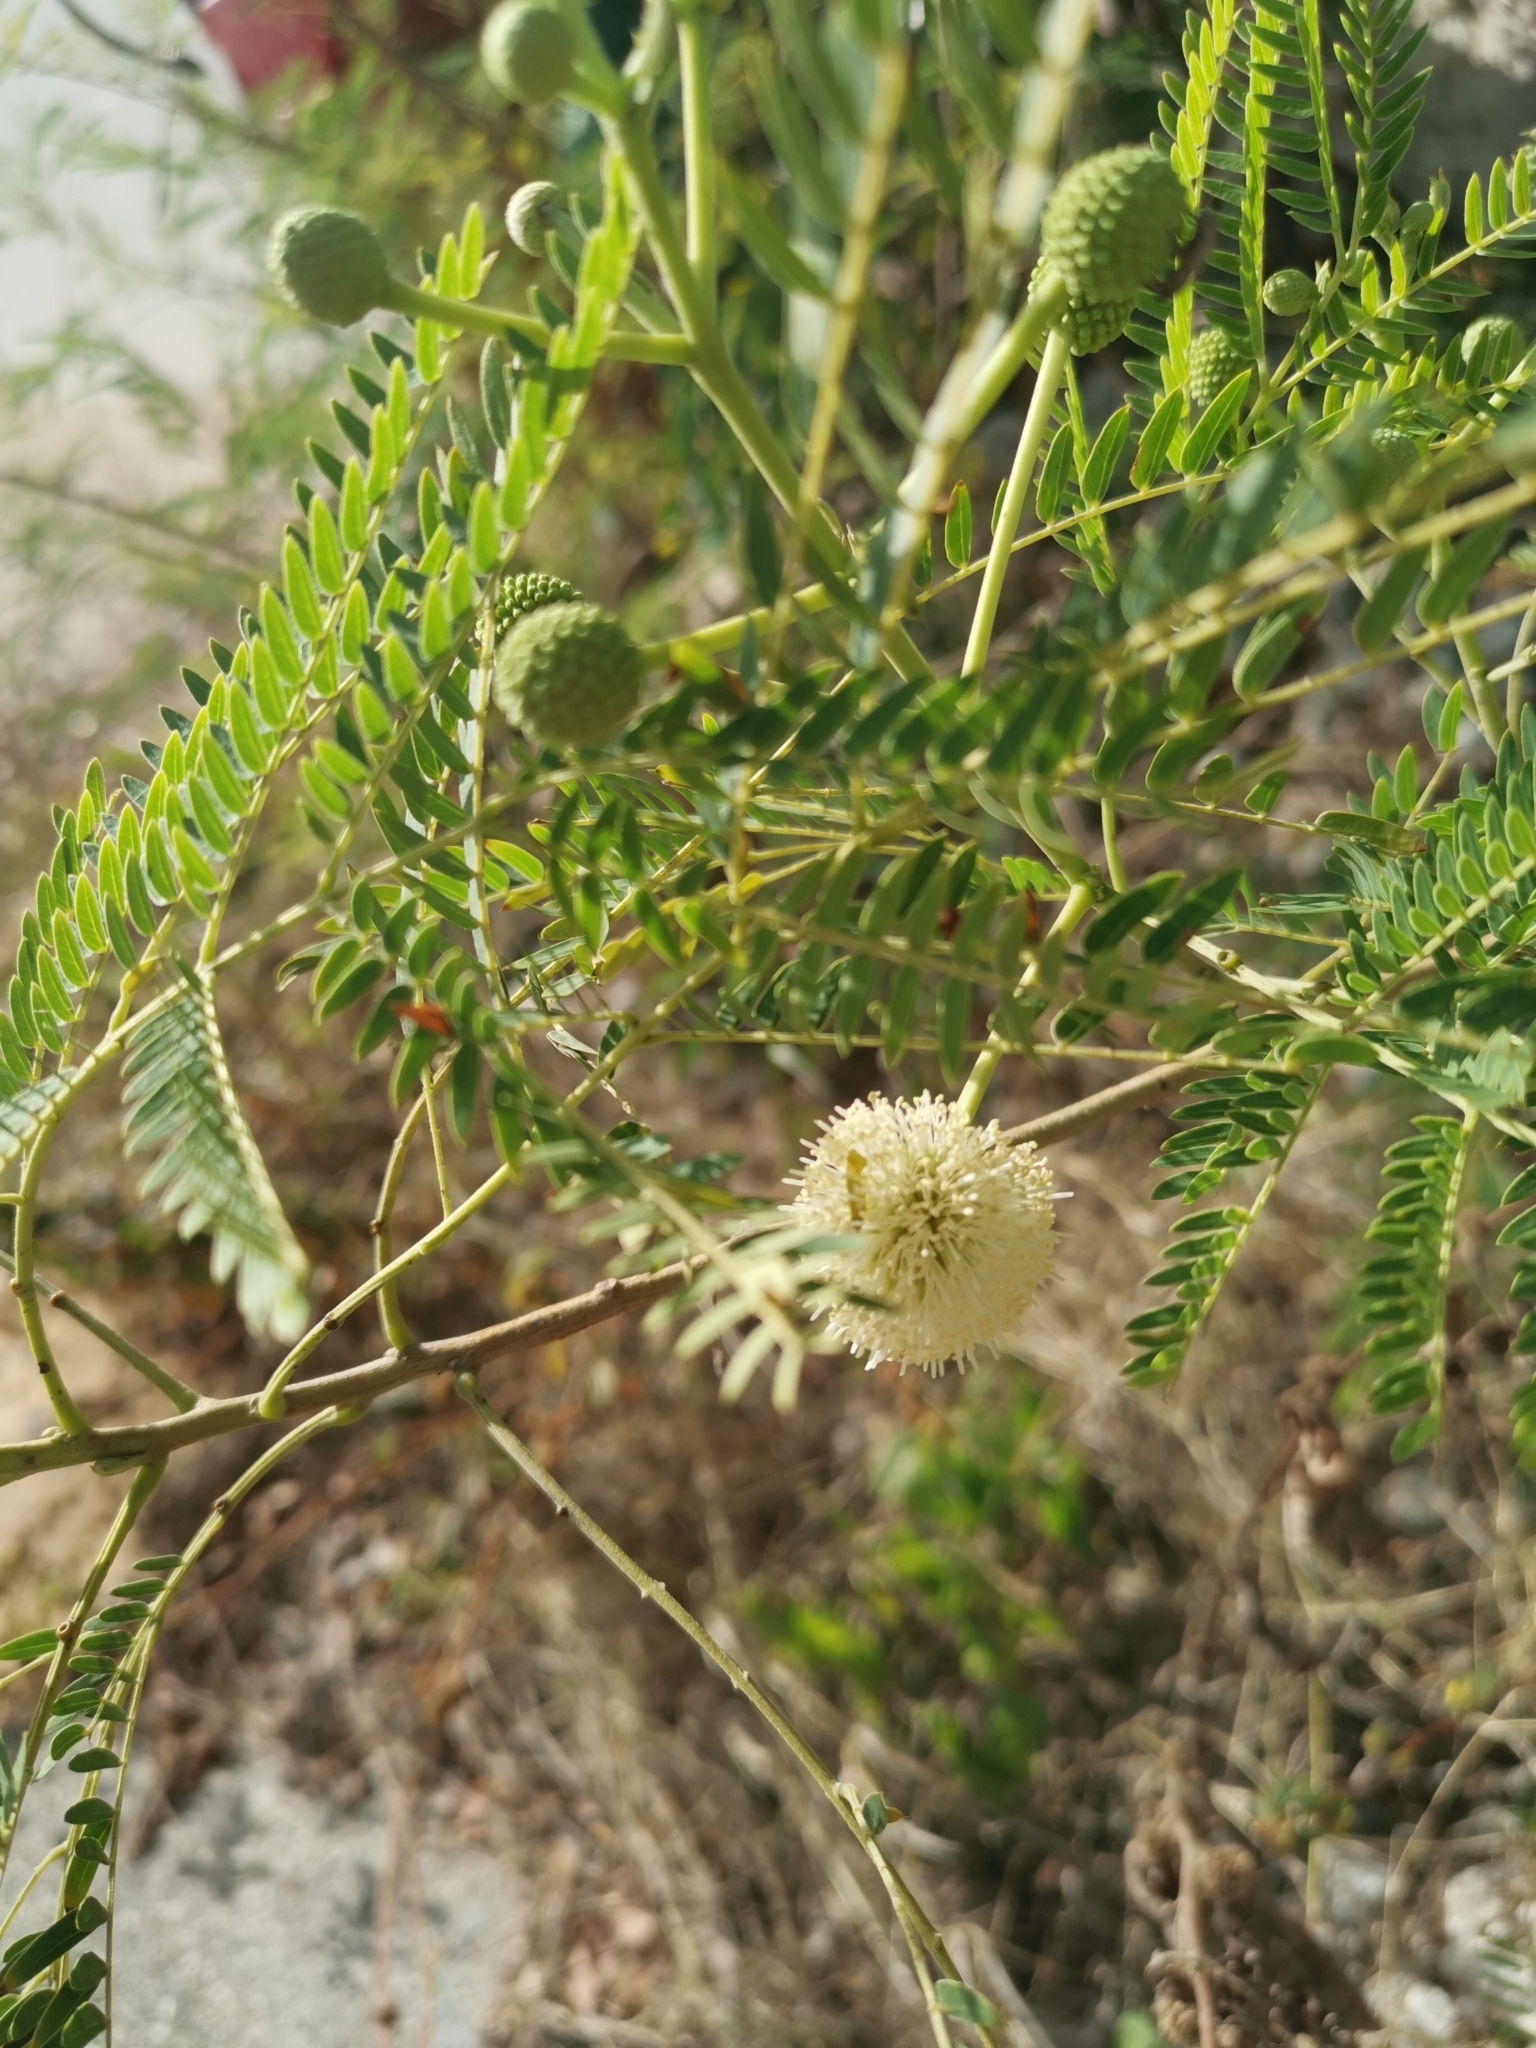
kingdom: Plantae
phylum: Tracheophyta
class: Magnoliopsida
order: Fabales
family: Fabaceae
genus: Leucaena
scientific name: Leucaena leucocephala
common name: White leadtree
